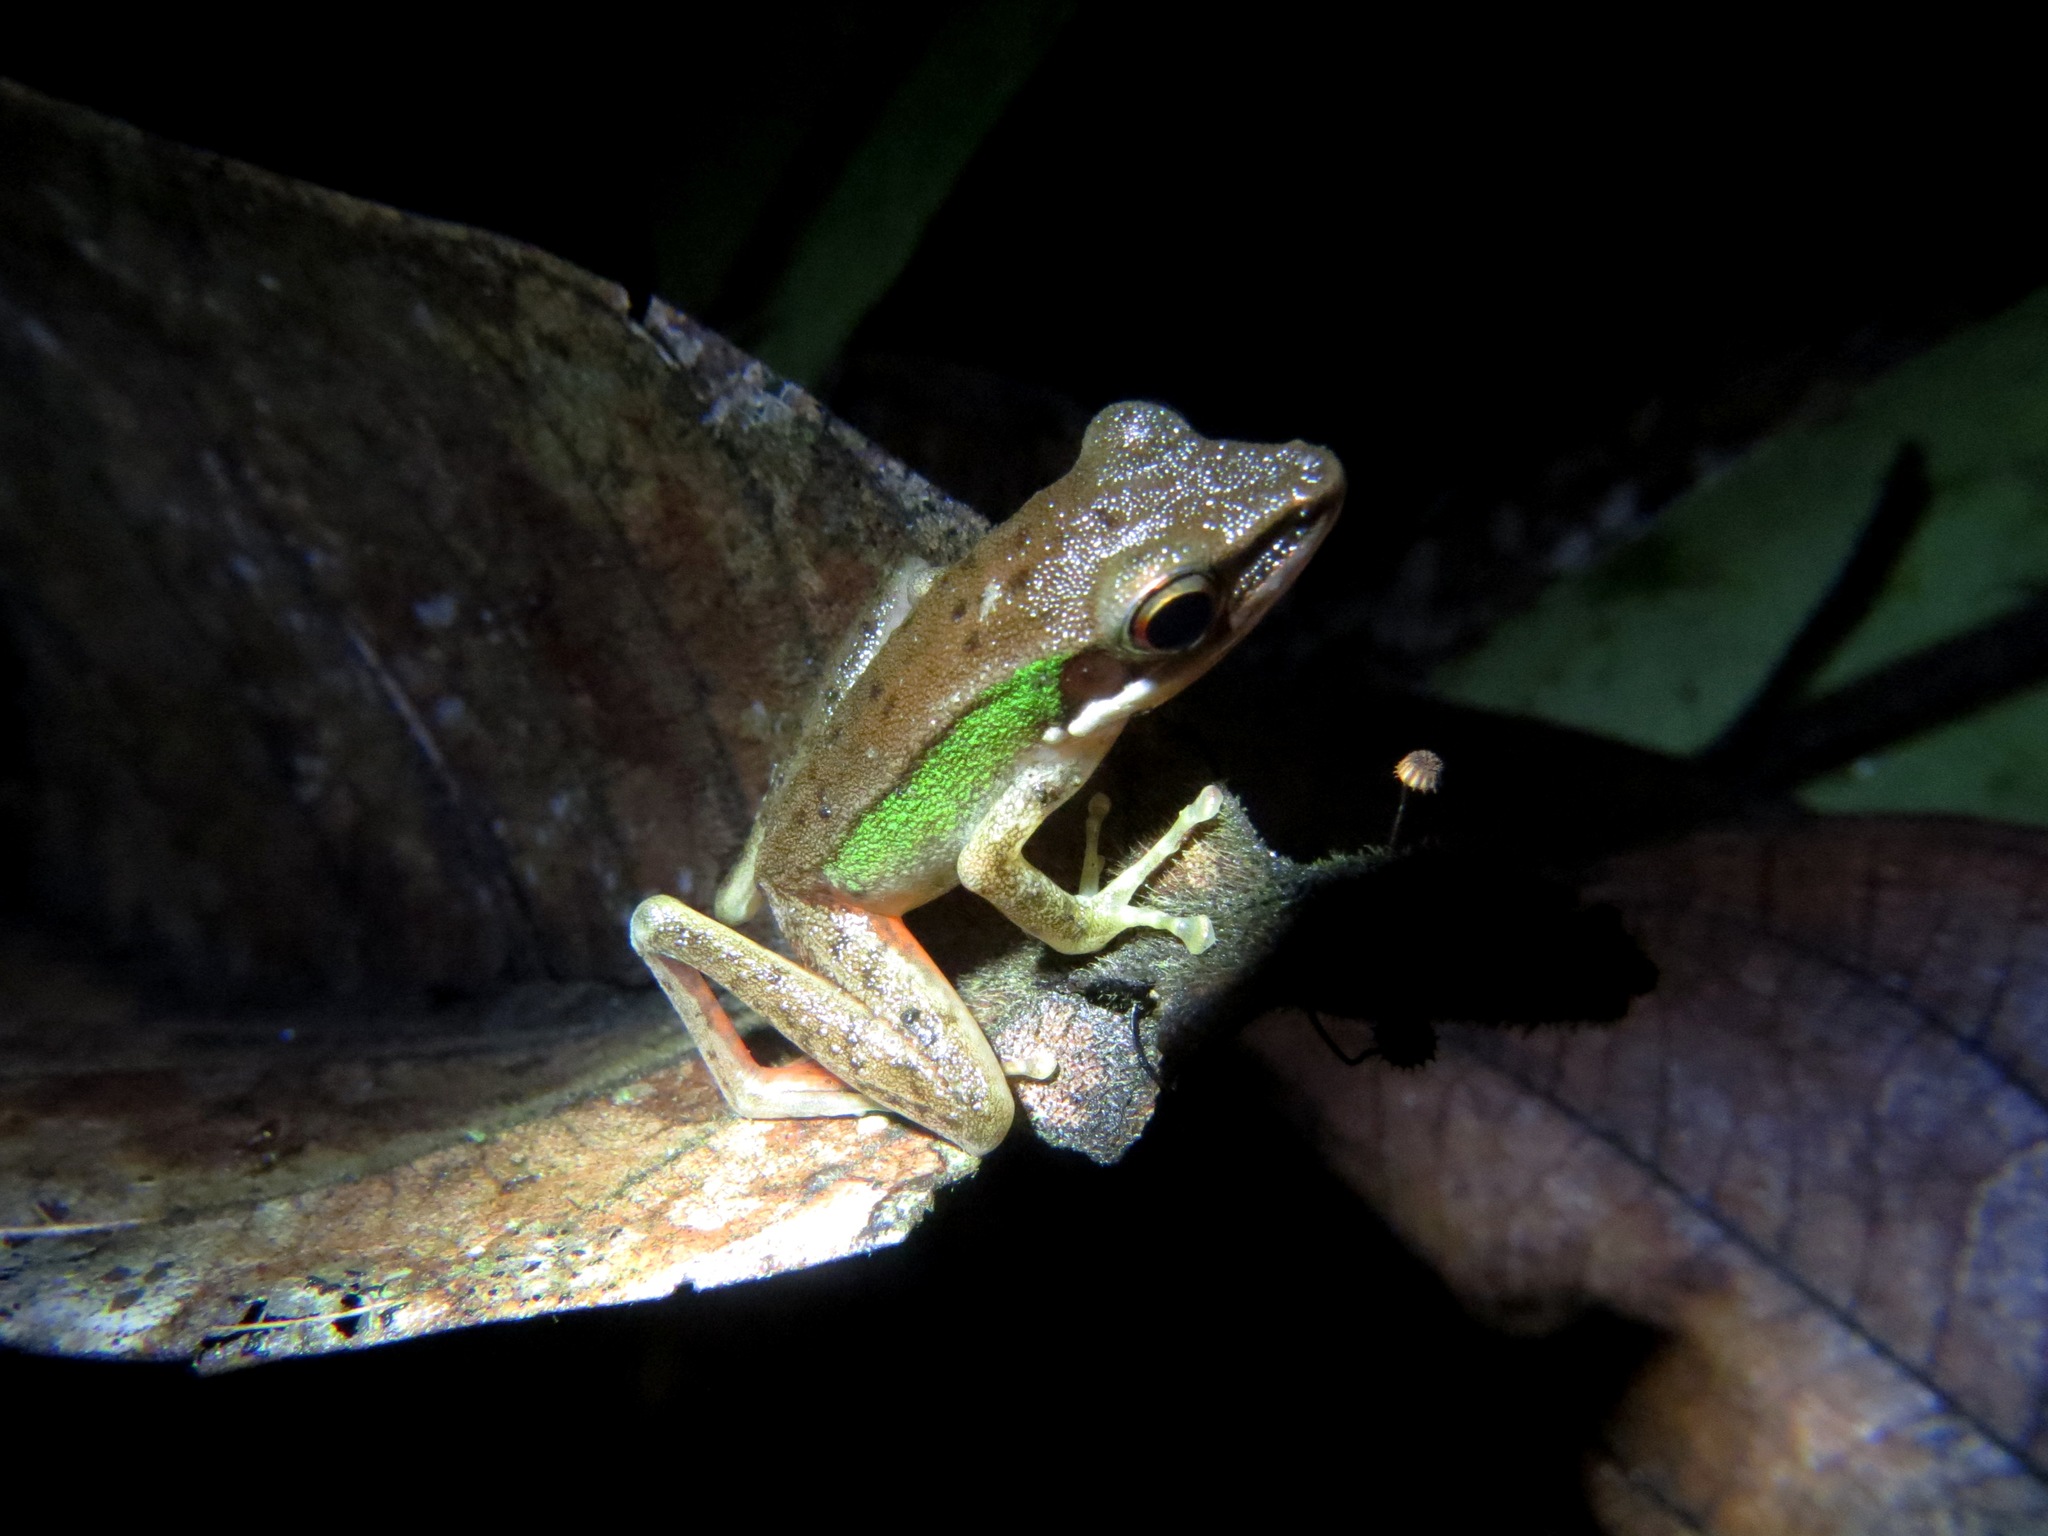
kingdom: Animalia
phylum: Chordata
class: Amphibia
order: Anura
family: Ranidae
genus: Chalcorana
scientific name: Chalcorana megalonesa
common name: Large white-lipped frog
